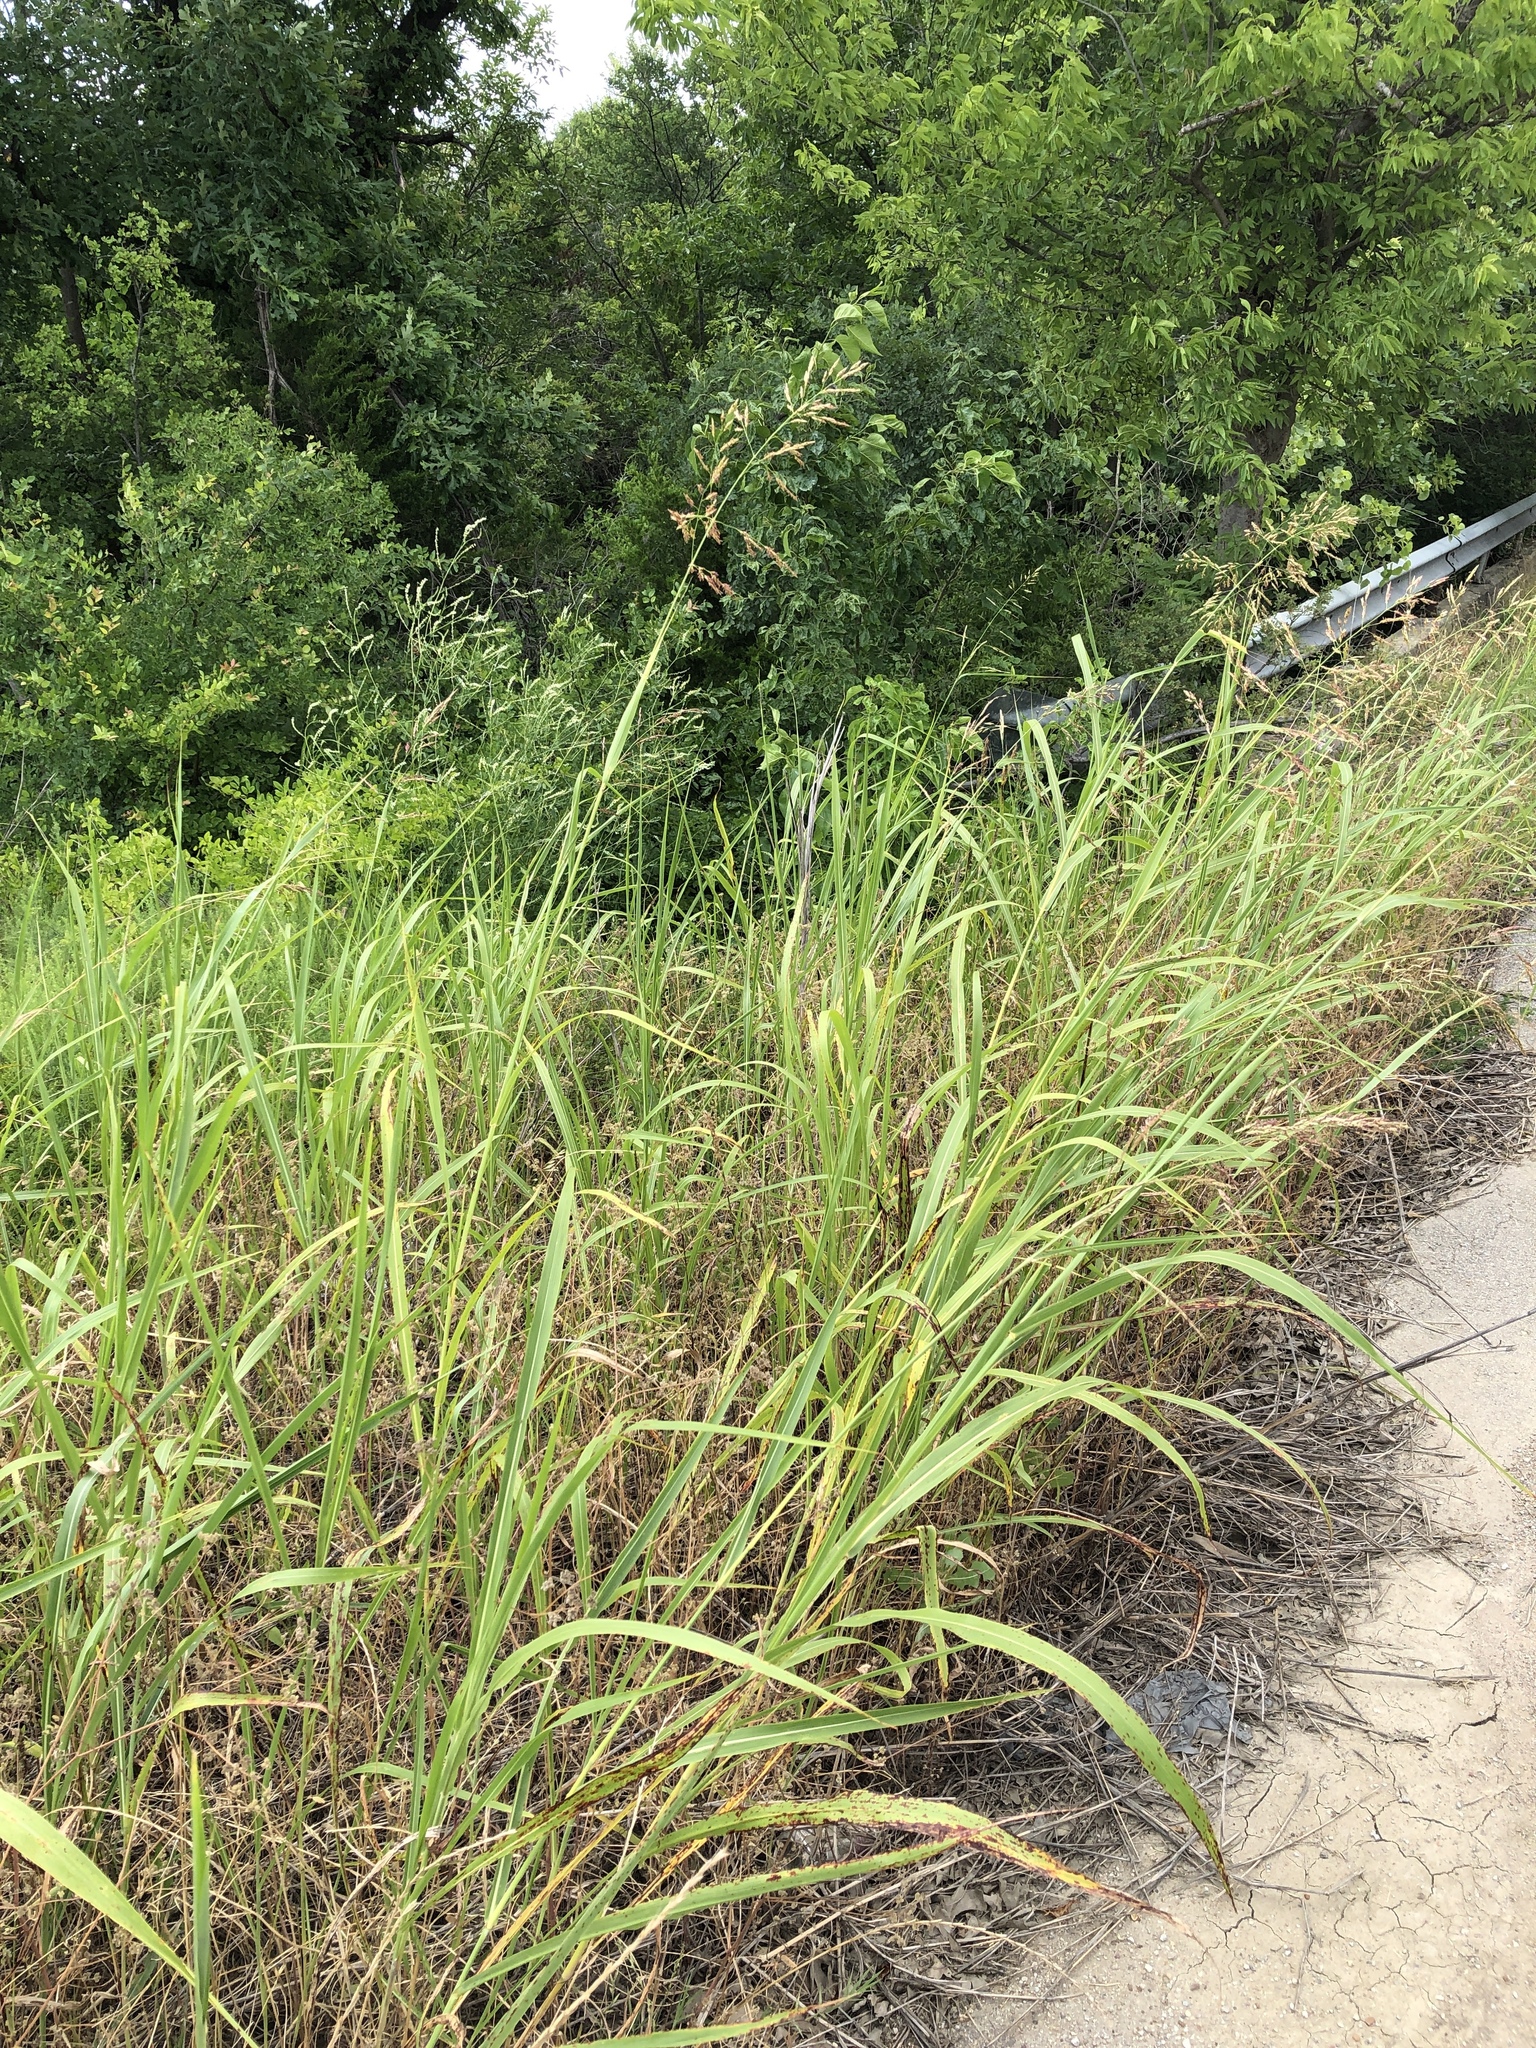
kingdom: Plantae
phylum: Tracheophyta
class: Liliopsida
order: Poales
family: Poaceae
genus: Sorghum
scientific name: Sorghum halepense
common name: Johnson-grass
